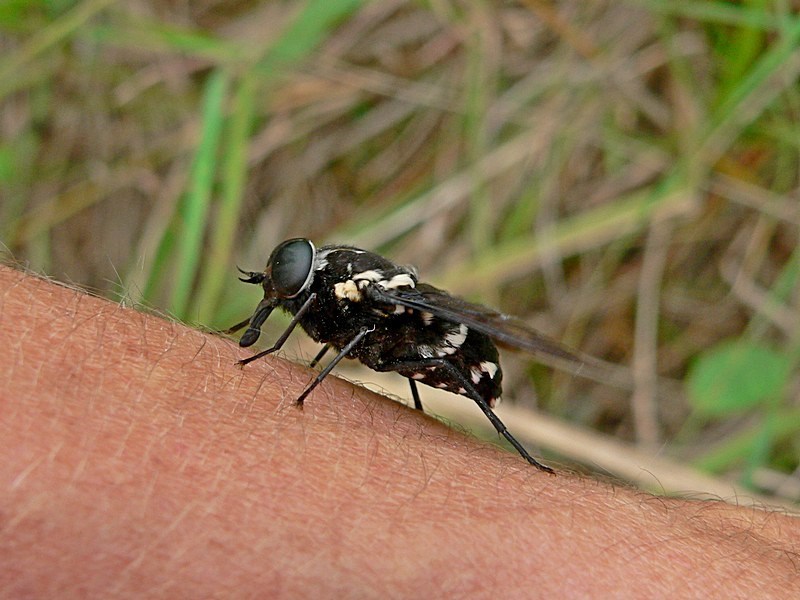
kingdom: Animalia
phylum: Arthropoda
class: Insecta
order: Diptera
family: Tabanidae
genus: Triclista
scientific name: Triclista guttata
